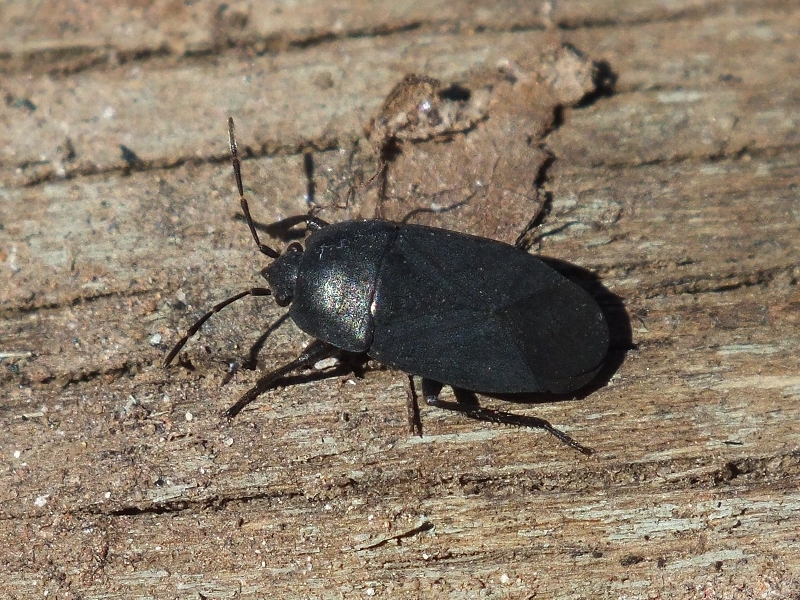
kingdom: Animalia
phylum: Arthropoda
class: Insecta
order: Hemiptera
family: Rhyparochromidae
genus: Aellopus
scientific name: Aellopus atratus
